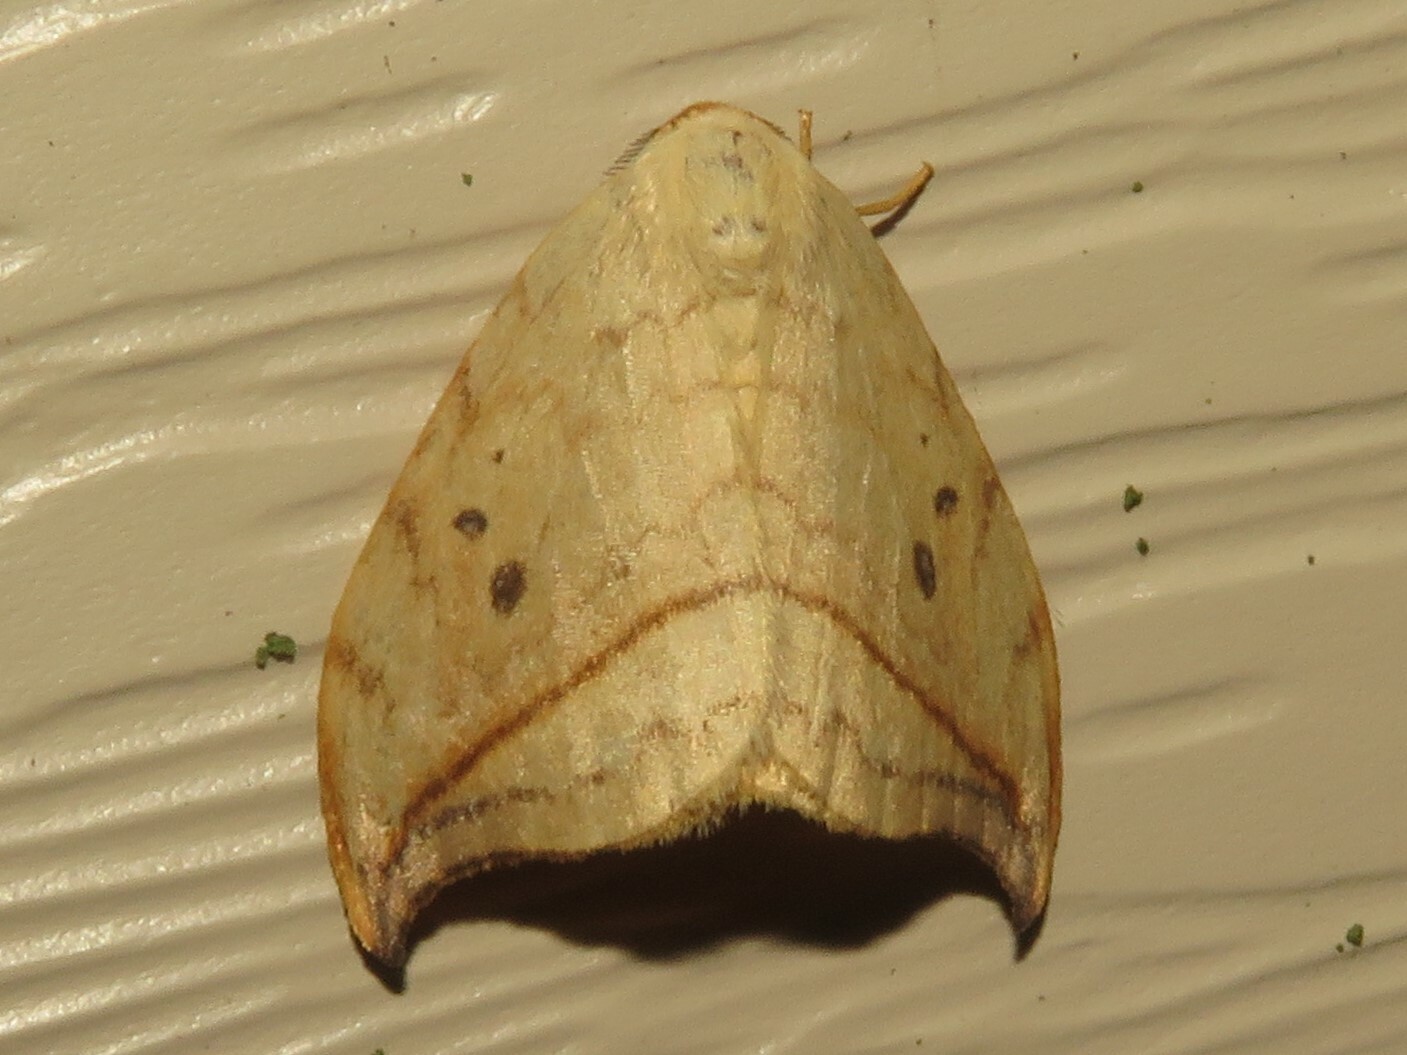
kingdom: Animalia
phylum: Arthropoda
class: Insecta
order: Lepidoptera
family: Drepanidae
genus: Drepana
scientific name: Drepana arcuata
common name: Arched hooktip moth
